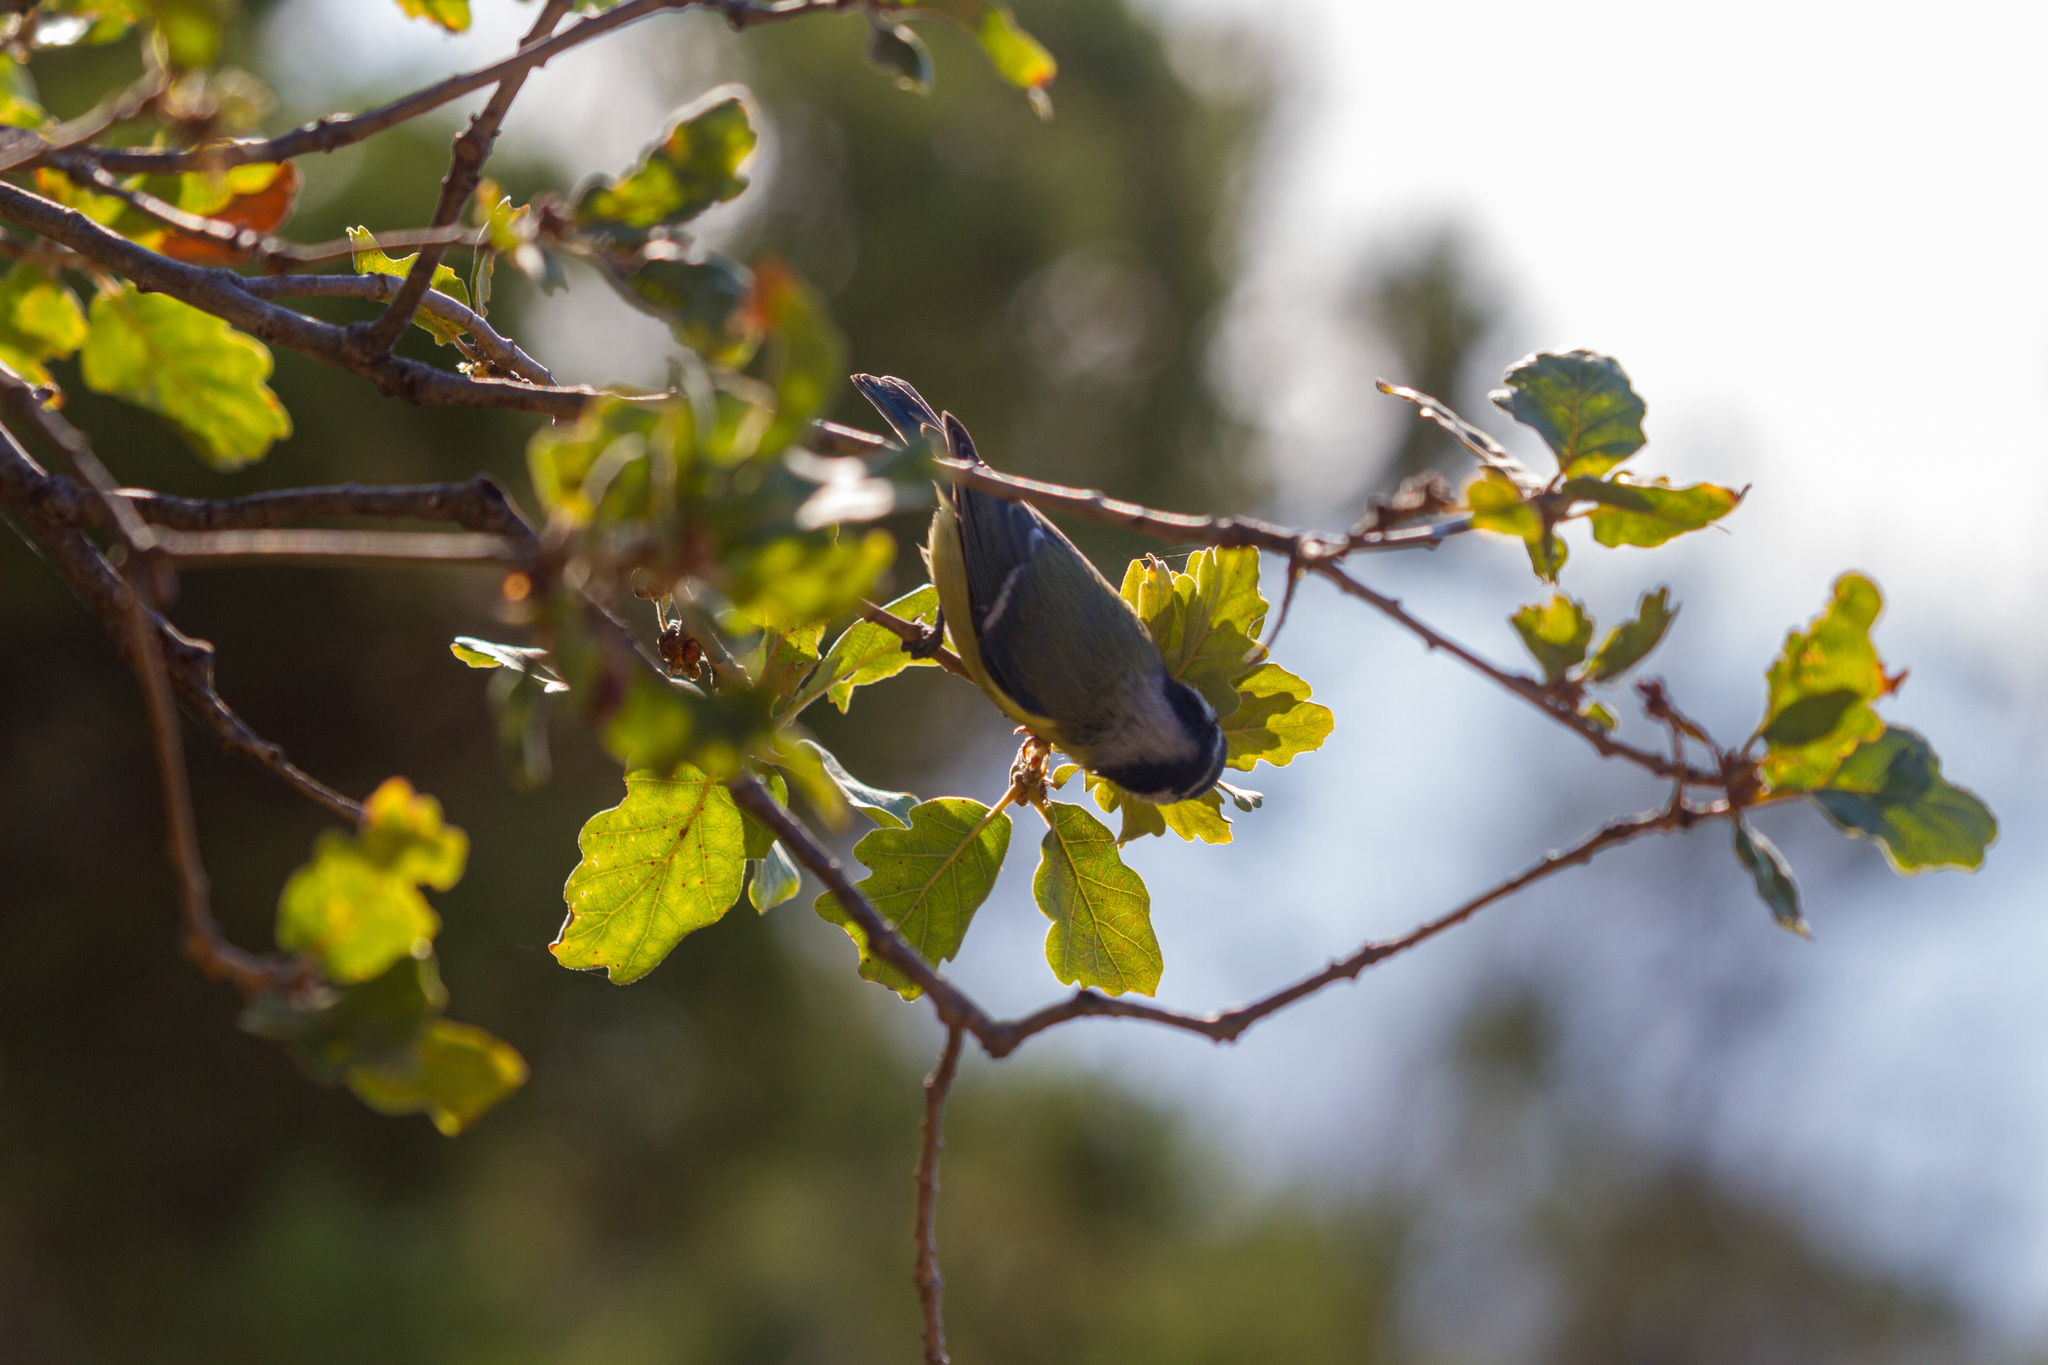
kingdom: Animalia
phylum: Chordata
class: Aves
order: Passeriformes
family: Paridae
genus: Cyanistes
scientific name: Cyanistes caeruleus
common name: Eurasian blue tit
